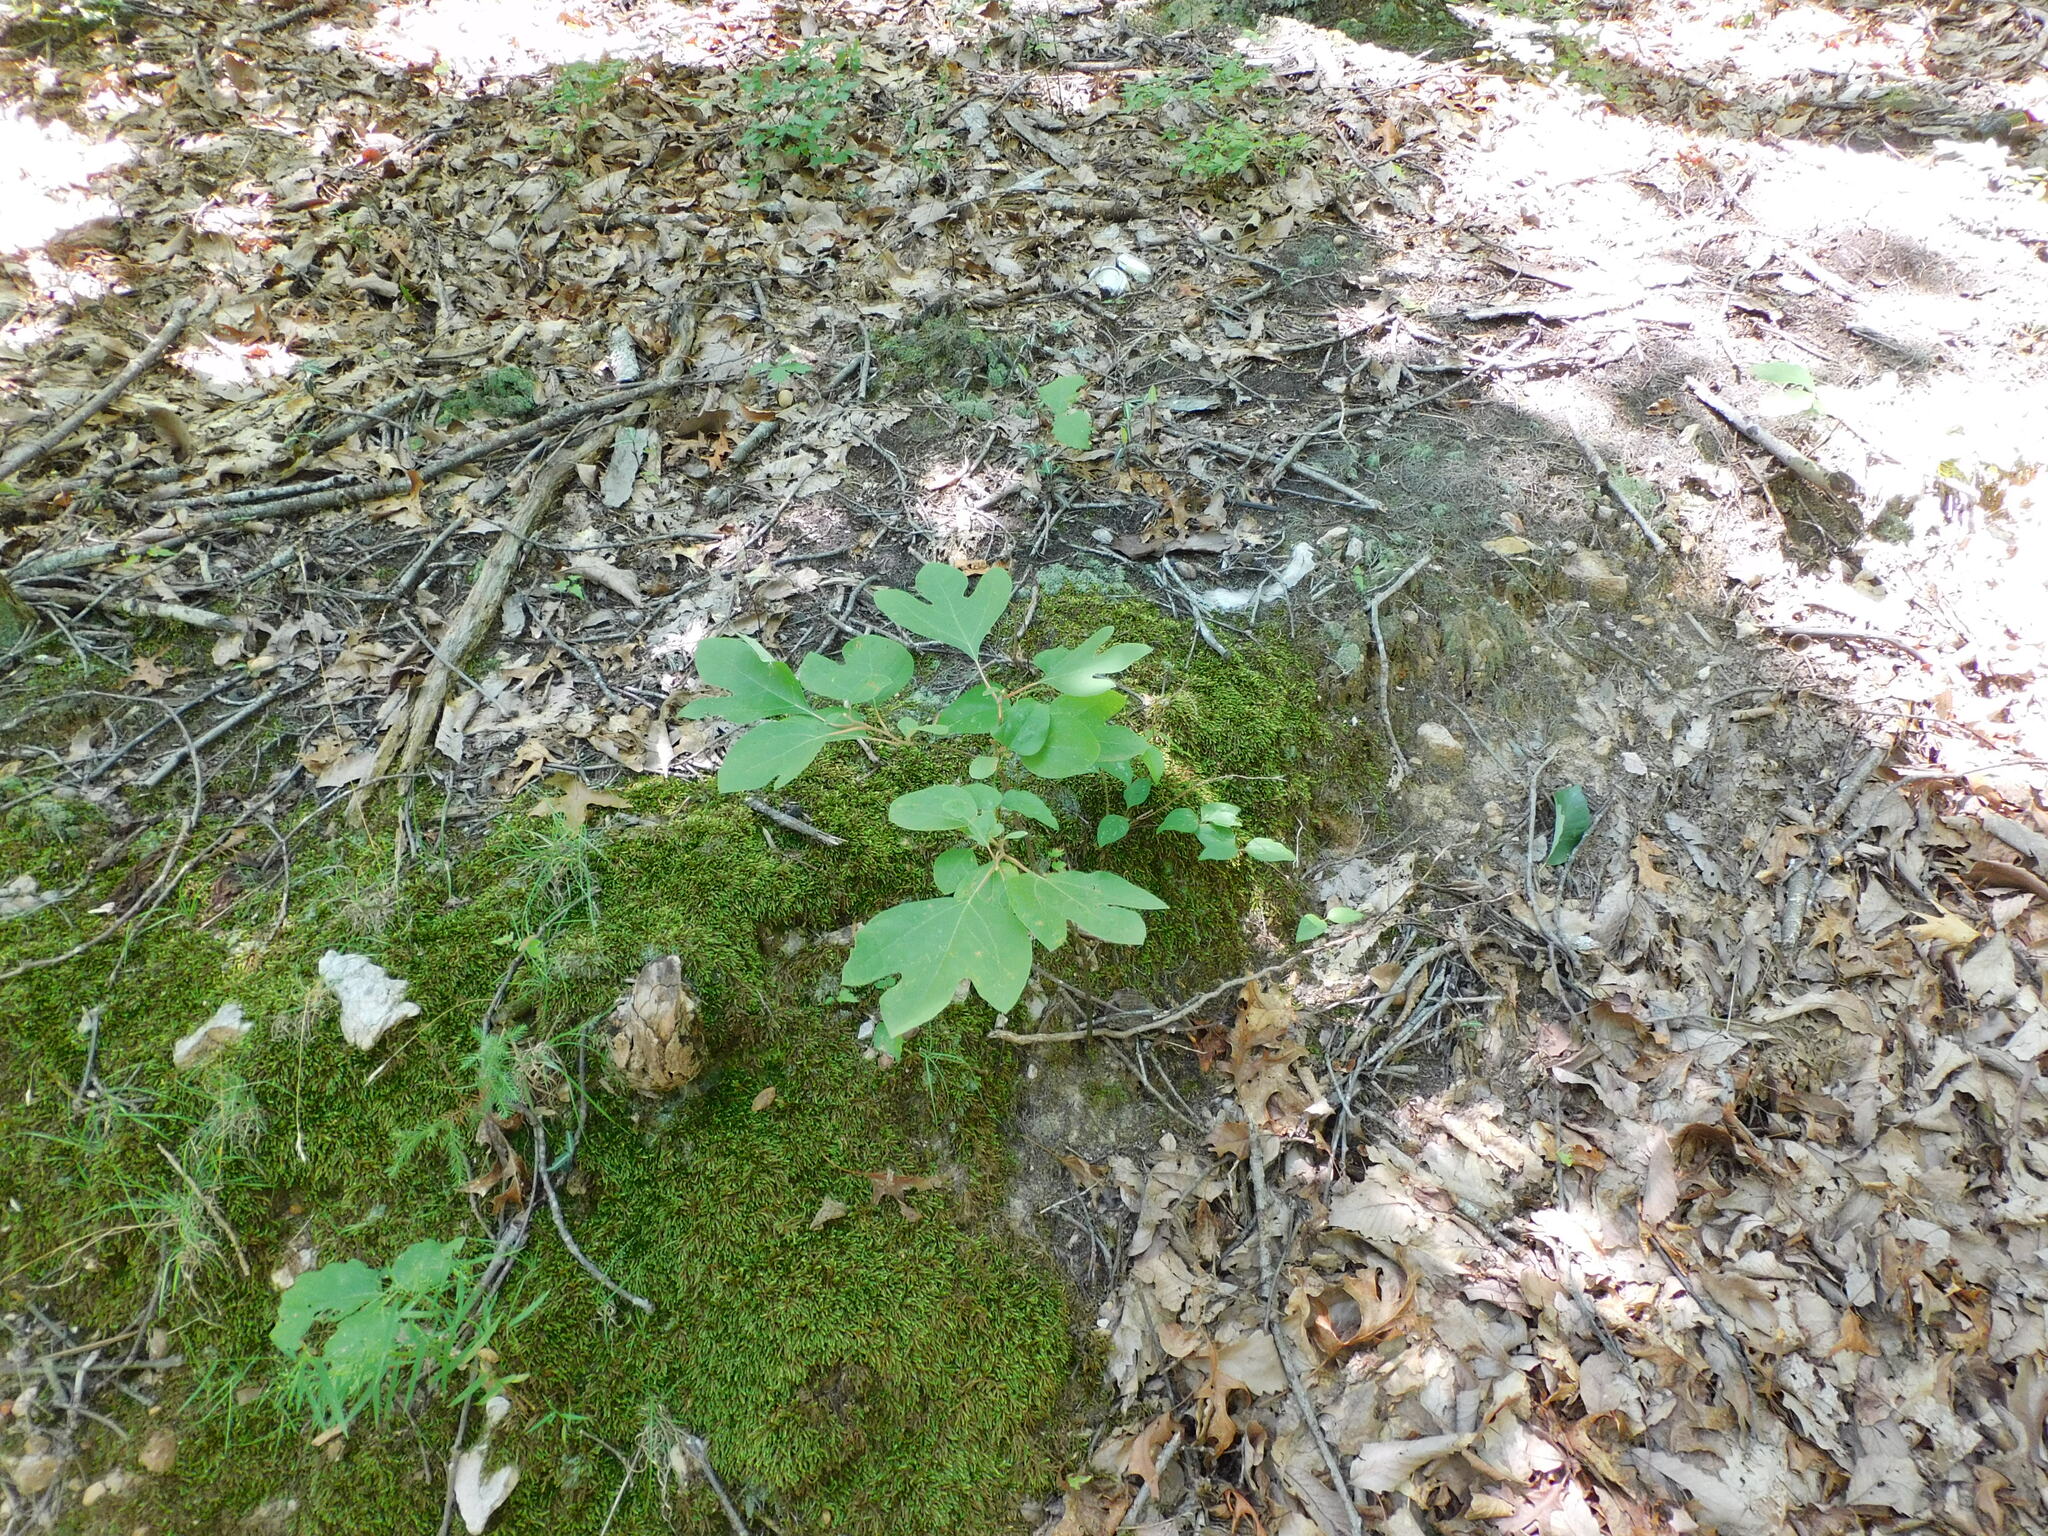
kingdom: Plantae
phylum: Tracheophyta
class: Magnoliopsida
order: Laurales
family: Lauraceae
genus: Sassafras
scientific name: Sassafras albidum
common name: Sassafras
